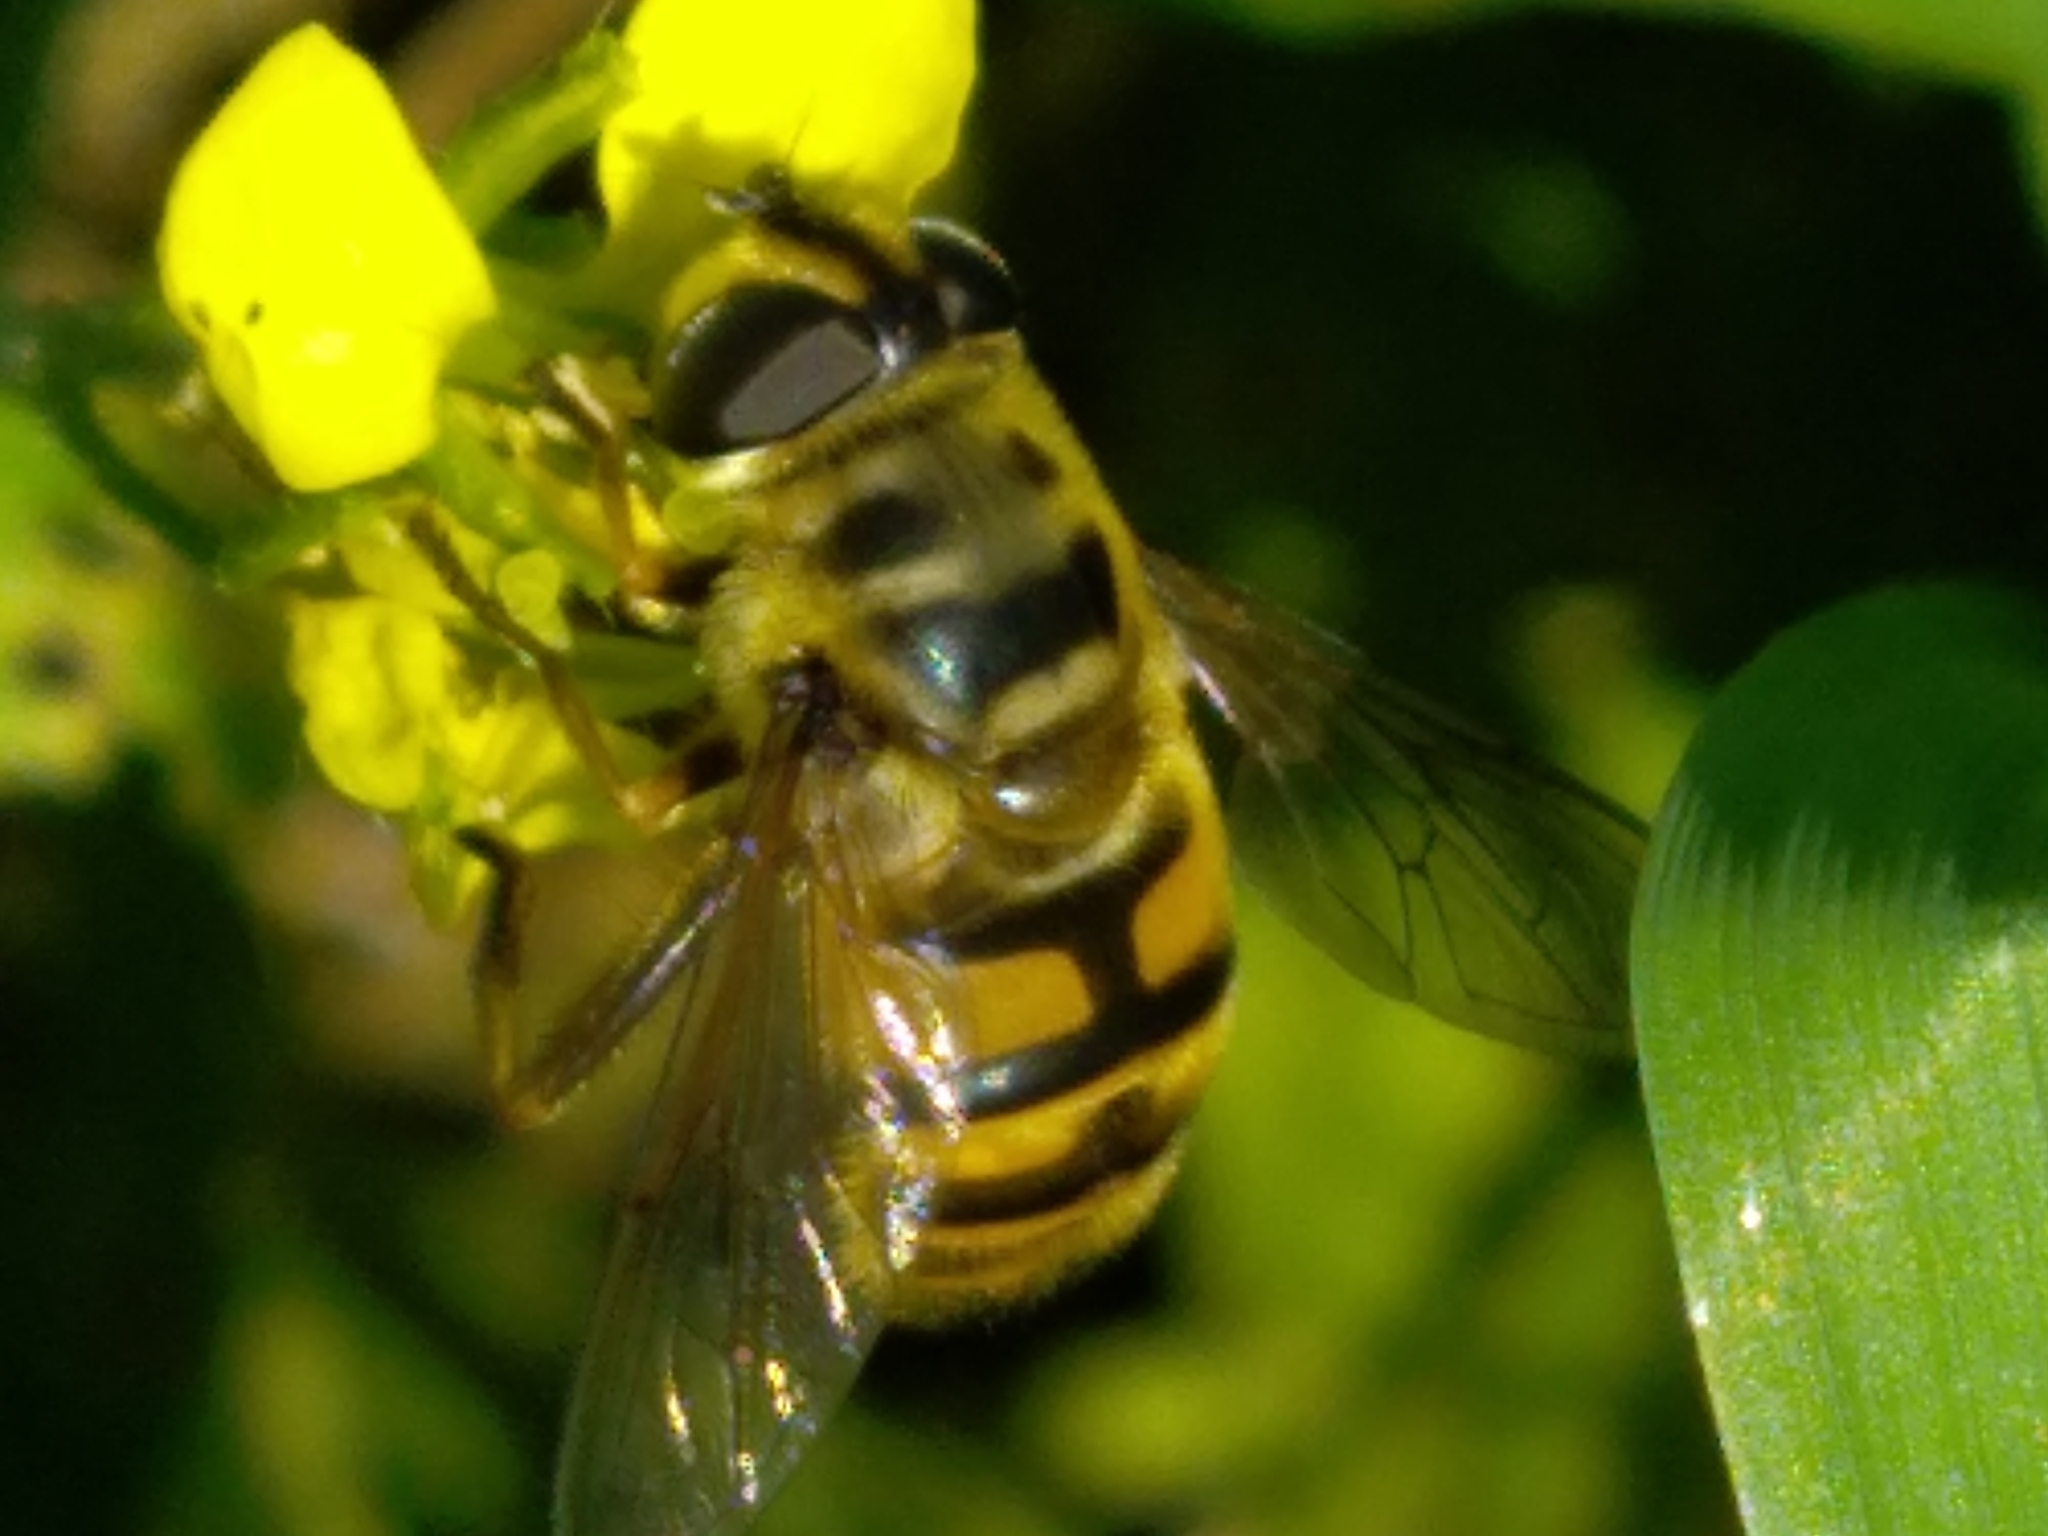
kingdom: Animalia
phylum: Arthropoda
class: Insecta
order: Diptera
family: Syrphidae
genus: Myathropa
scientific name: Myathropa florea
